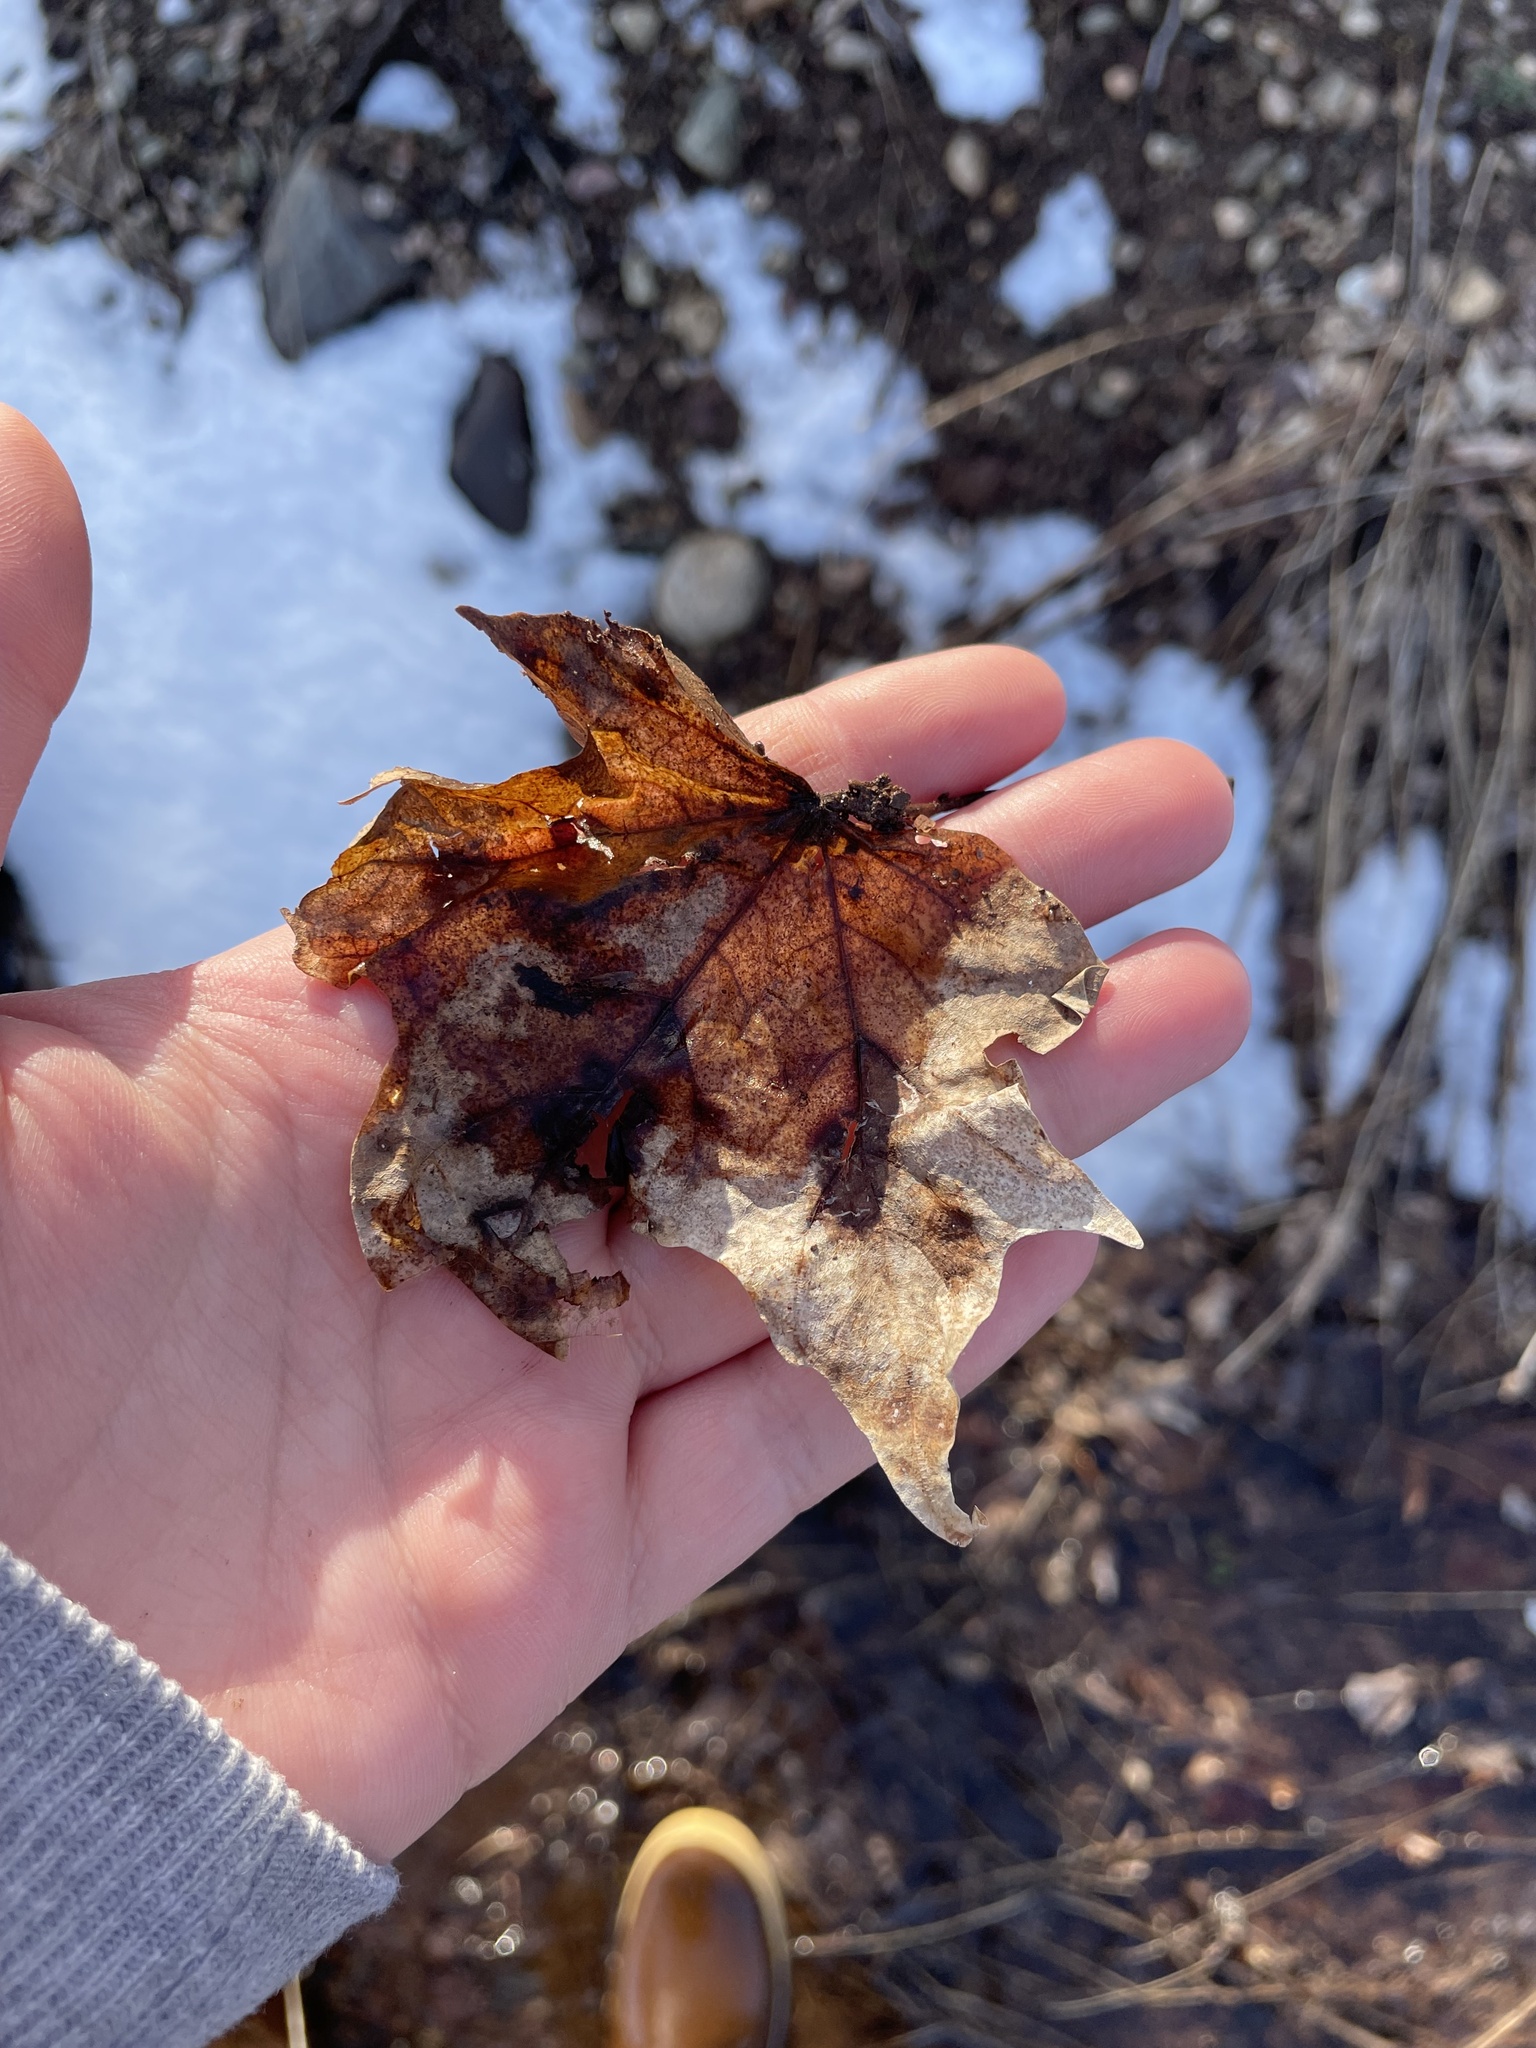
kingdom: Plantae
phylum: Tracheophyta
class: Magnoliopsida
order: Sapindales
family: Sapindaceae
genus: Acer
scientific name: Acer saccharum
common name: Sugar maple
